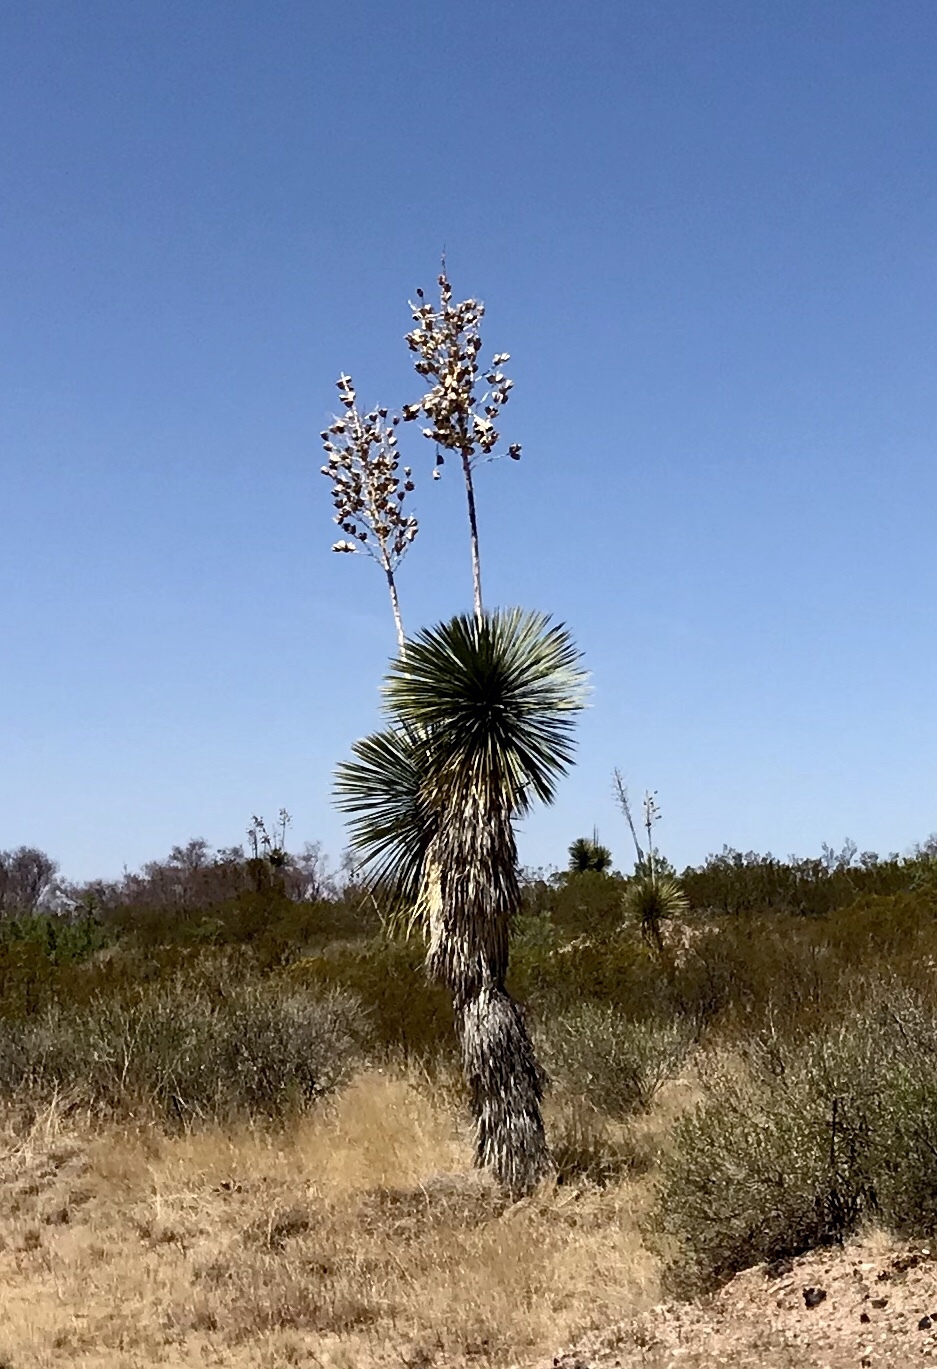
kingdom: Plantae
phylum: Tracheophyta
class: Liliopsida
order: Asparagales
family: Asparagaceae
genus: Yucca
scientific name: Yucca elata
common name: Palmella
